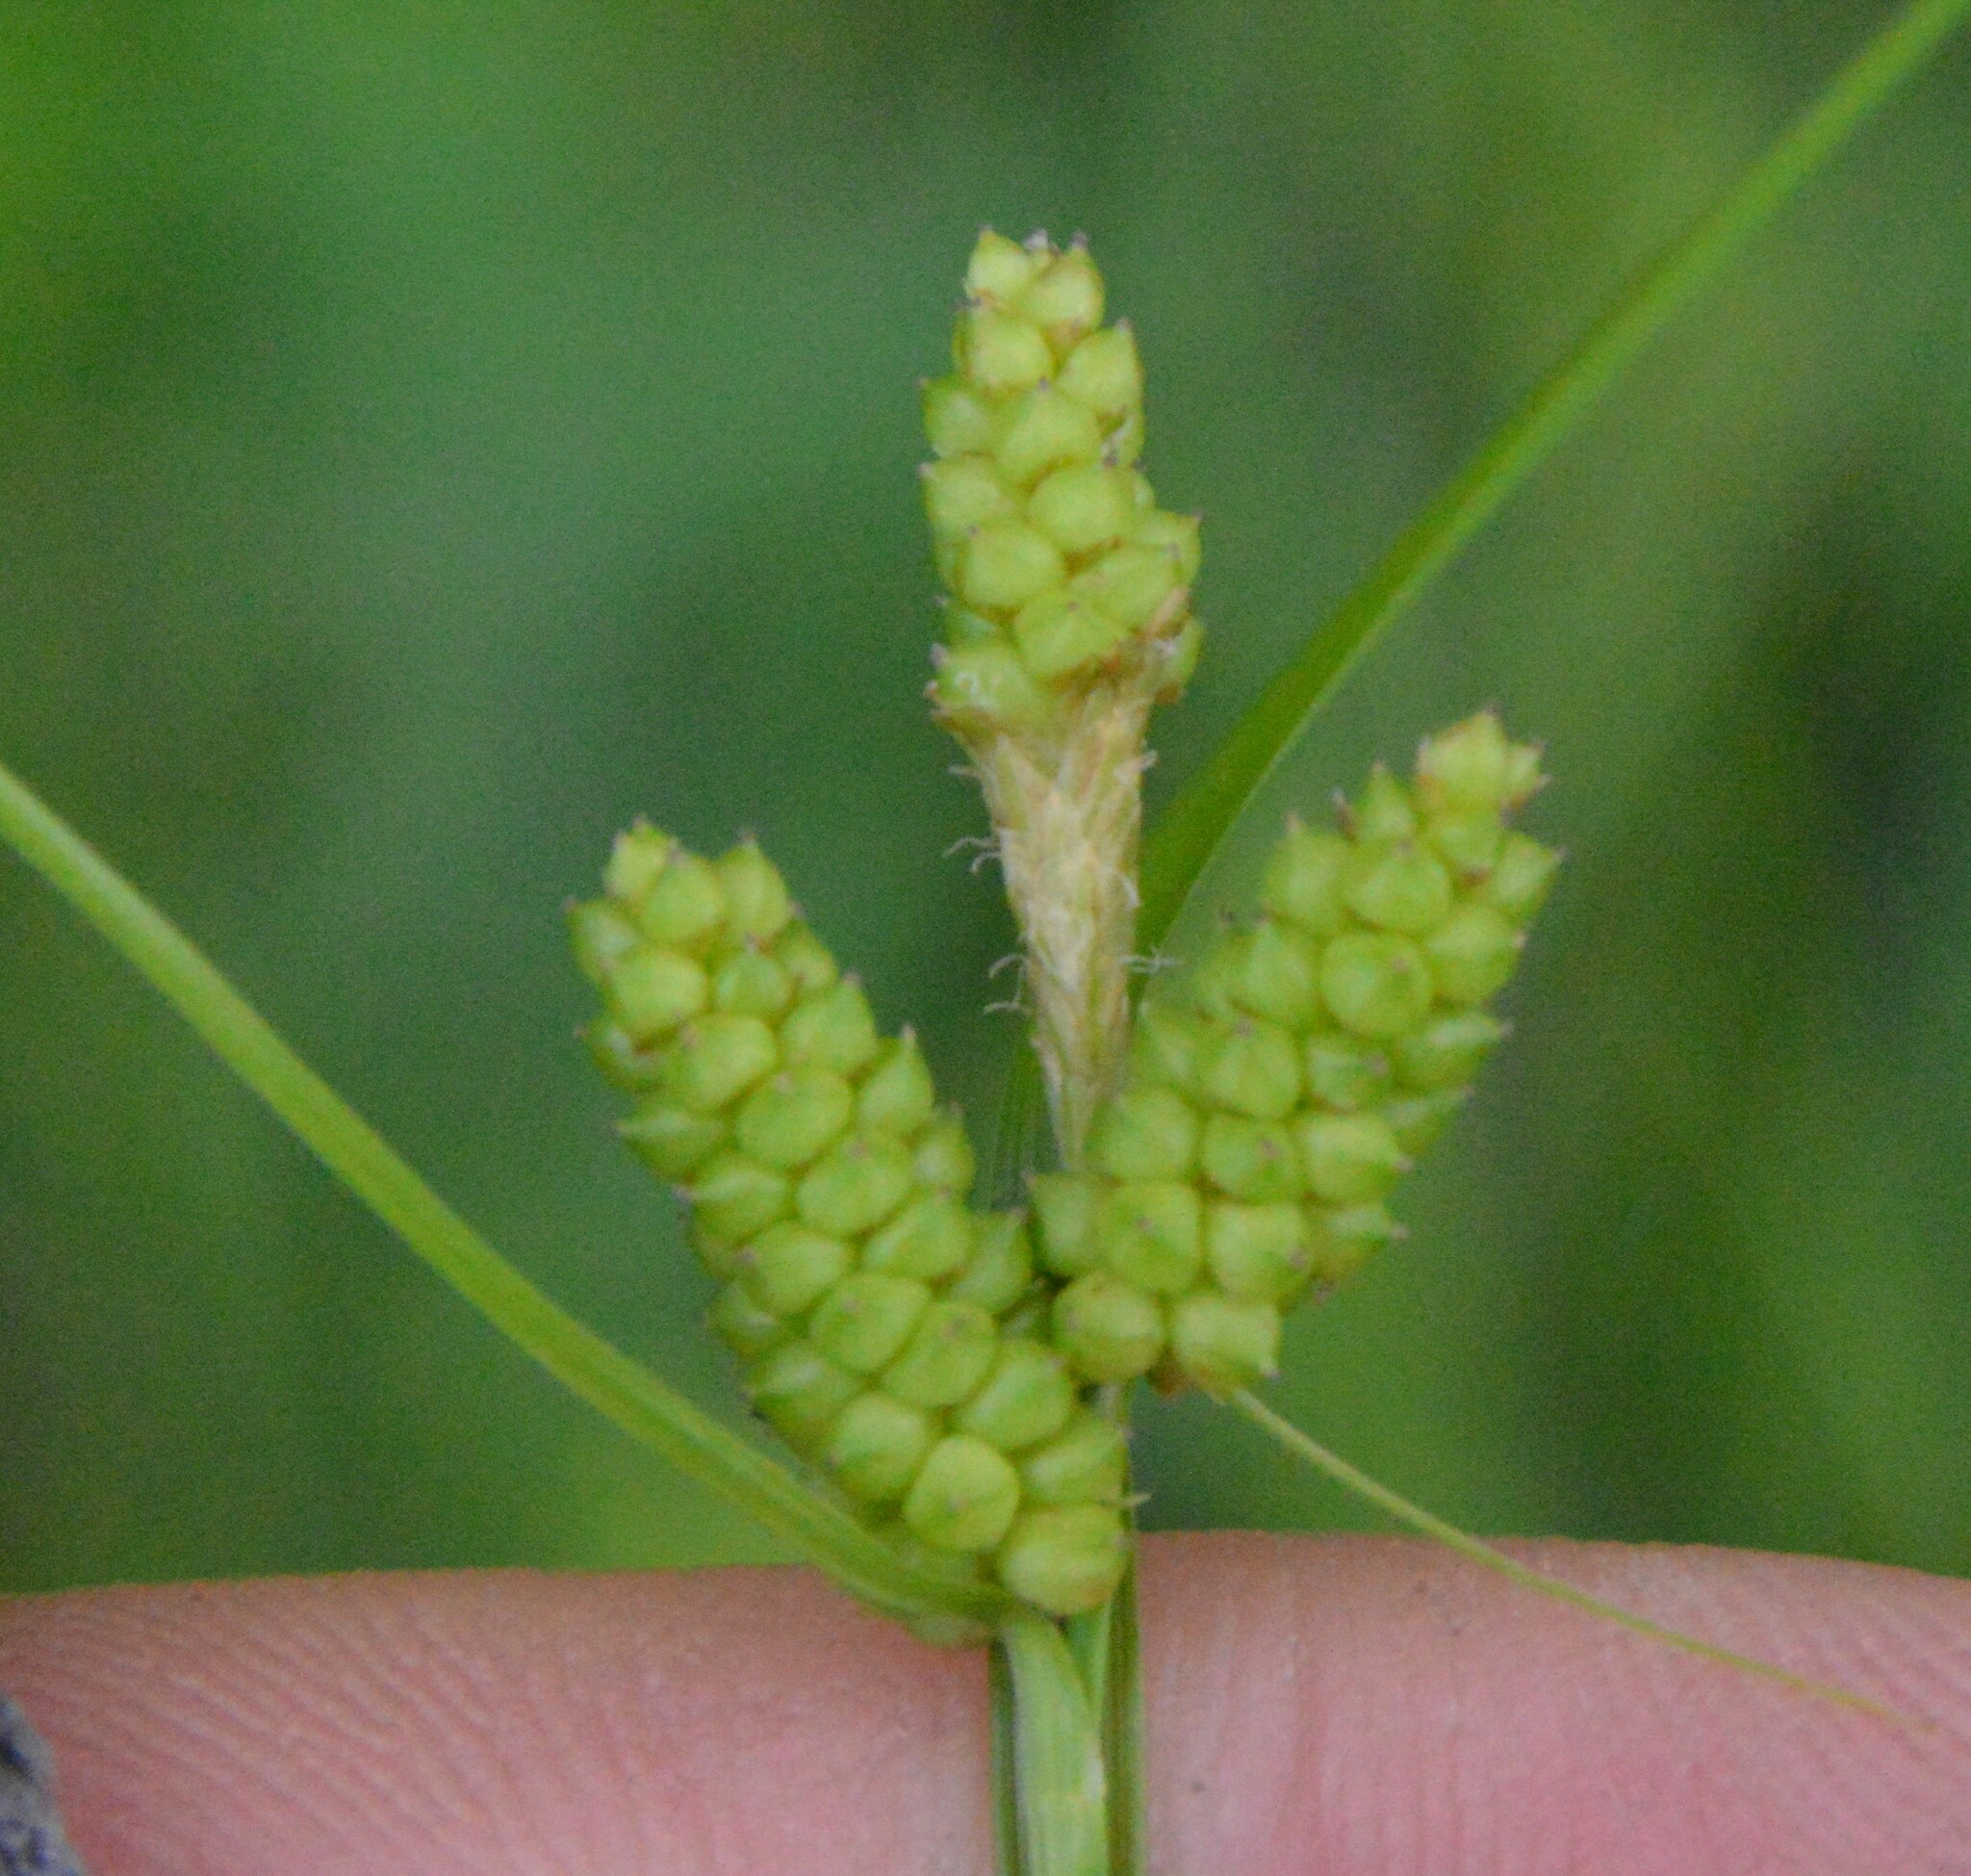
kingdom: Plantae
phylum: Tracheophyta
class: Liliopsida
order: Poales
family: Cyperaceae
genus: Carex
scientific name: Carex caroliniana
